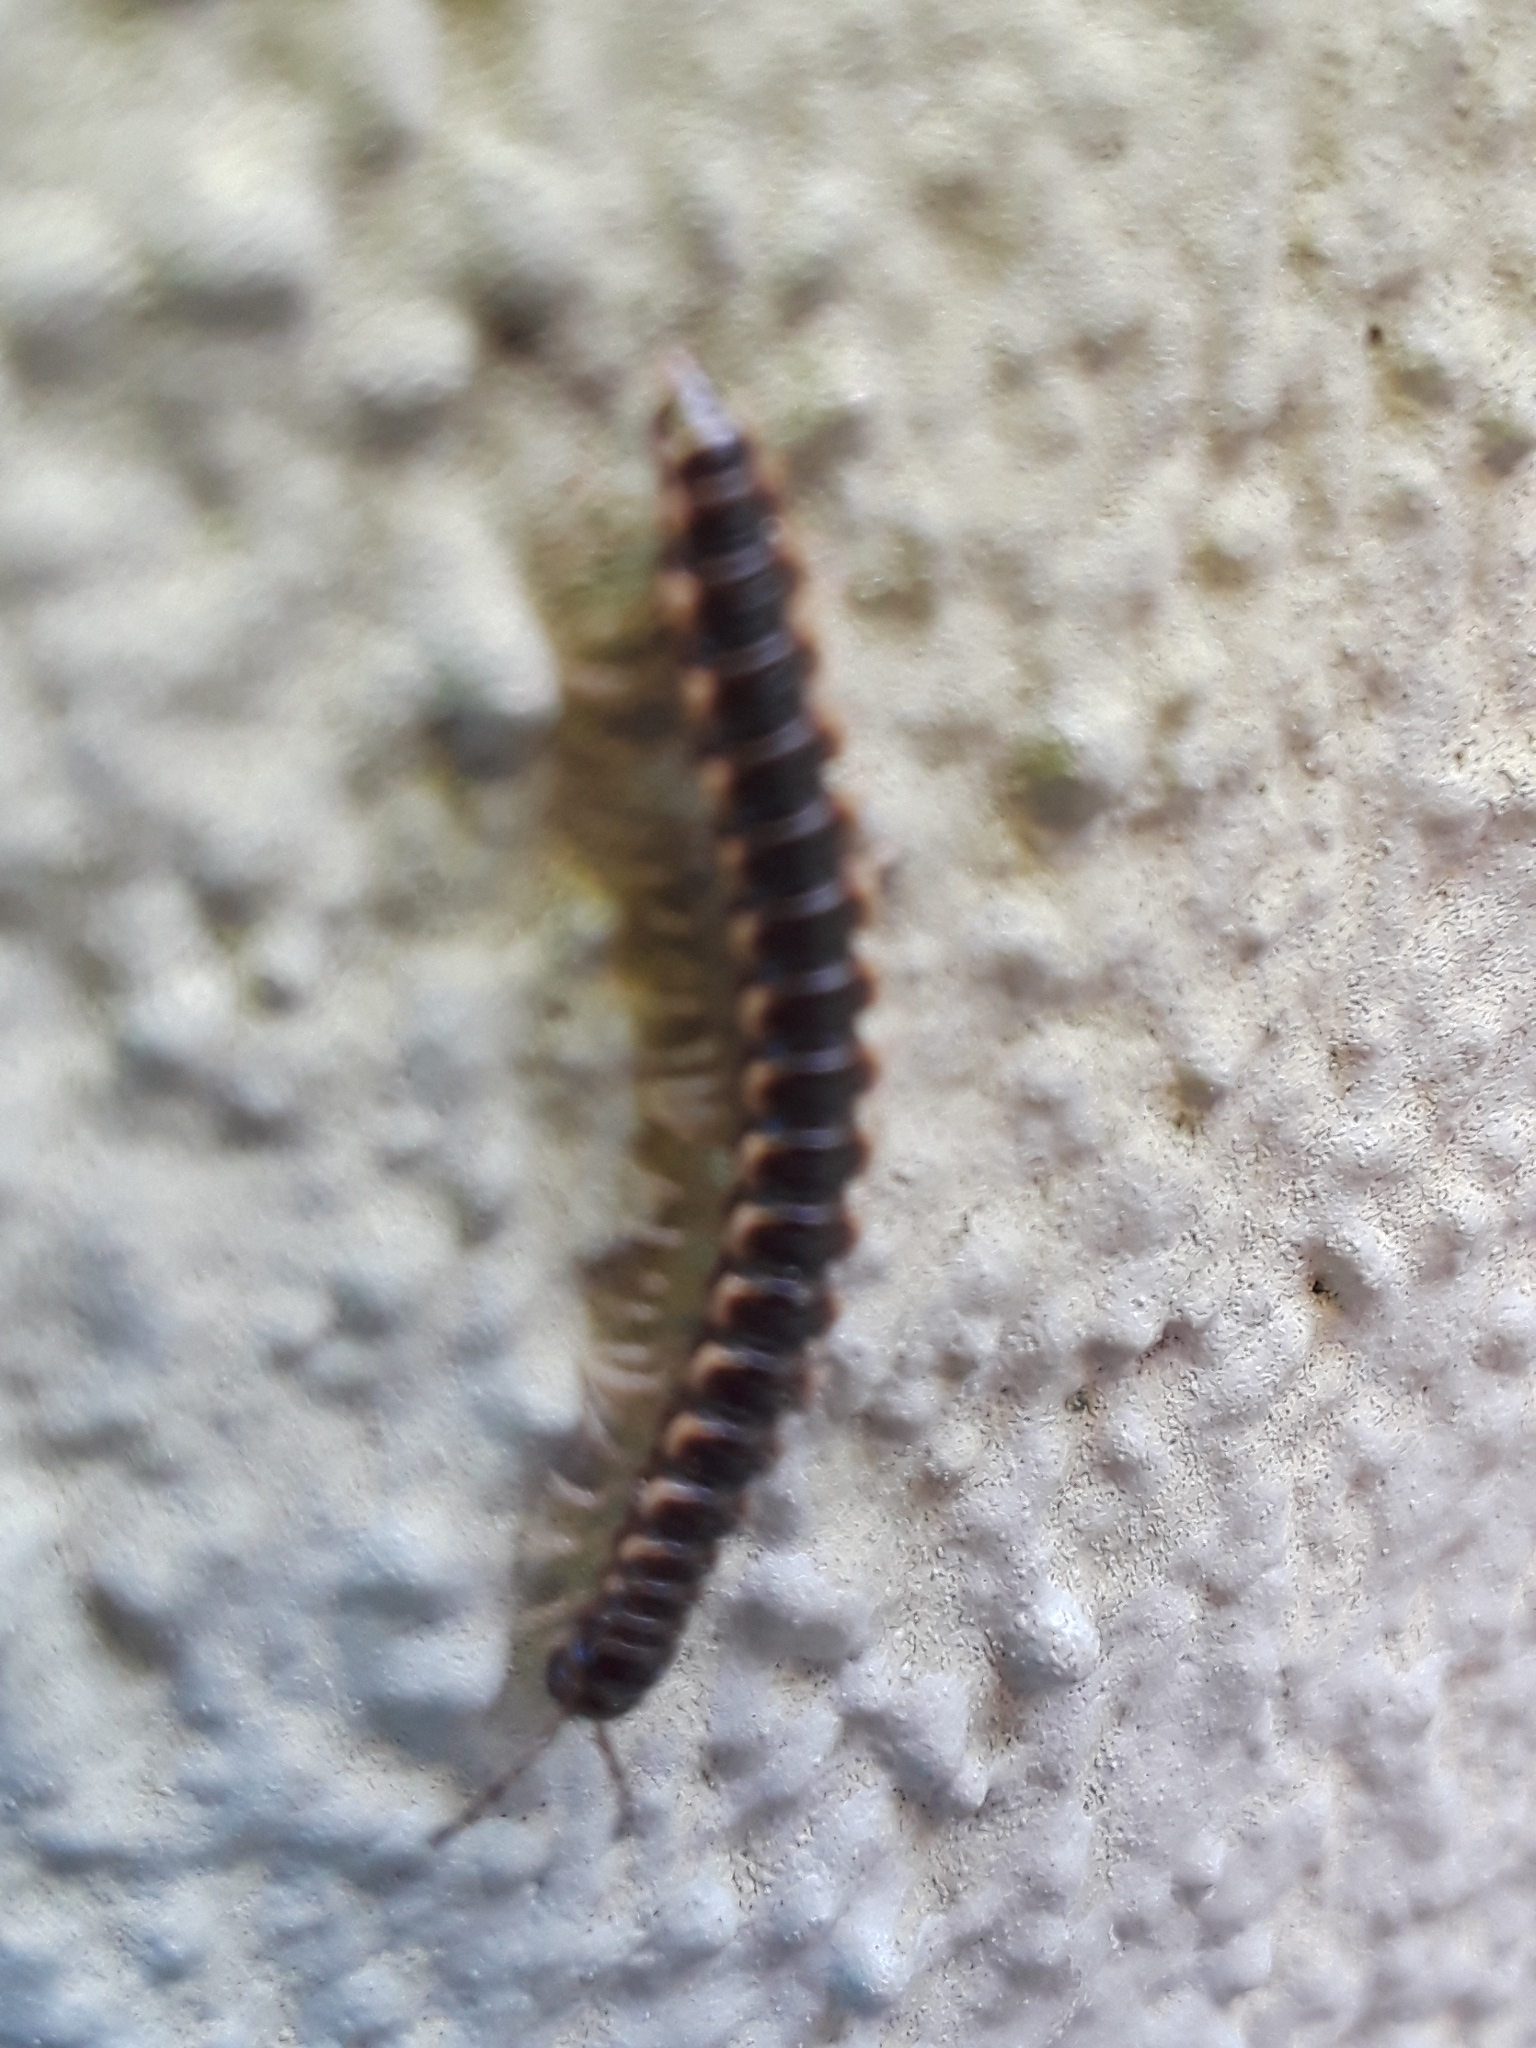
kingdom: Animalia
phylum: Arthropoda
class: Diplopoda
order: Polydesmida
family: Paradoxosomatidae
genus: Oxidus
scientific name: Oxidus gracilis
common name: Greenhouse millipede
